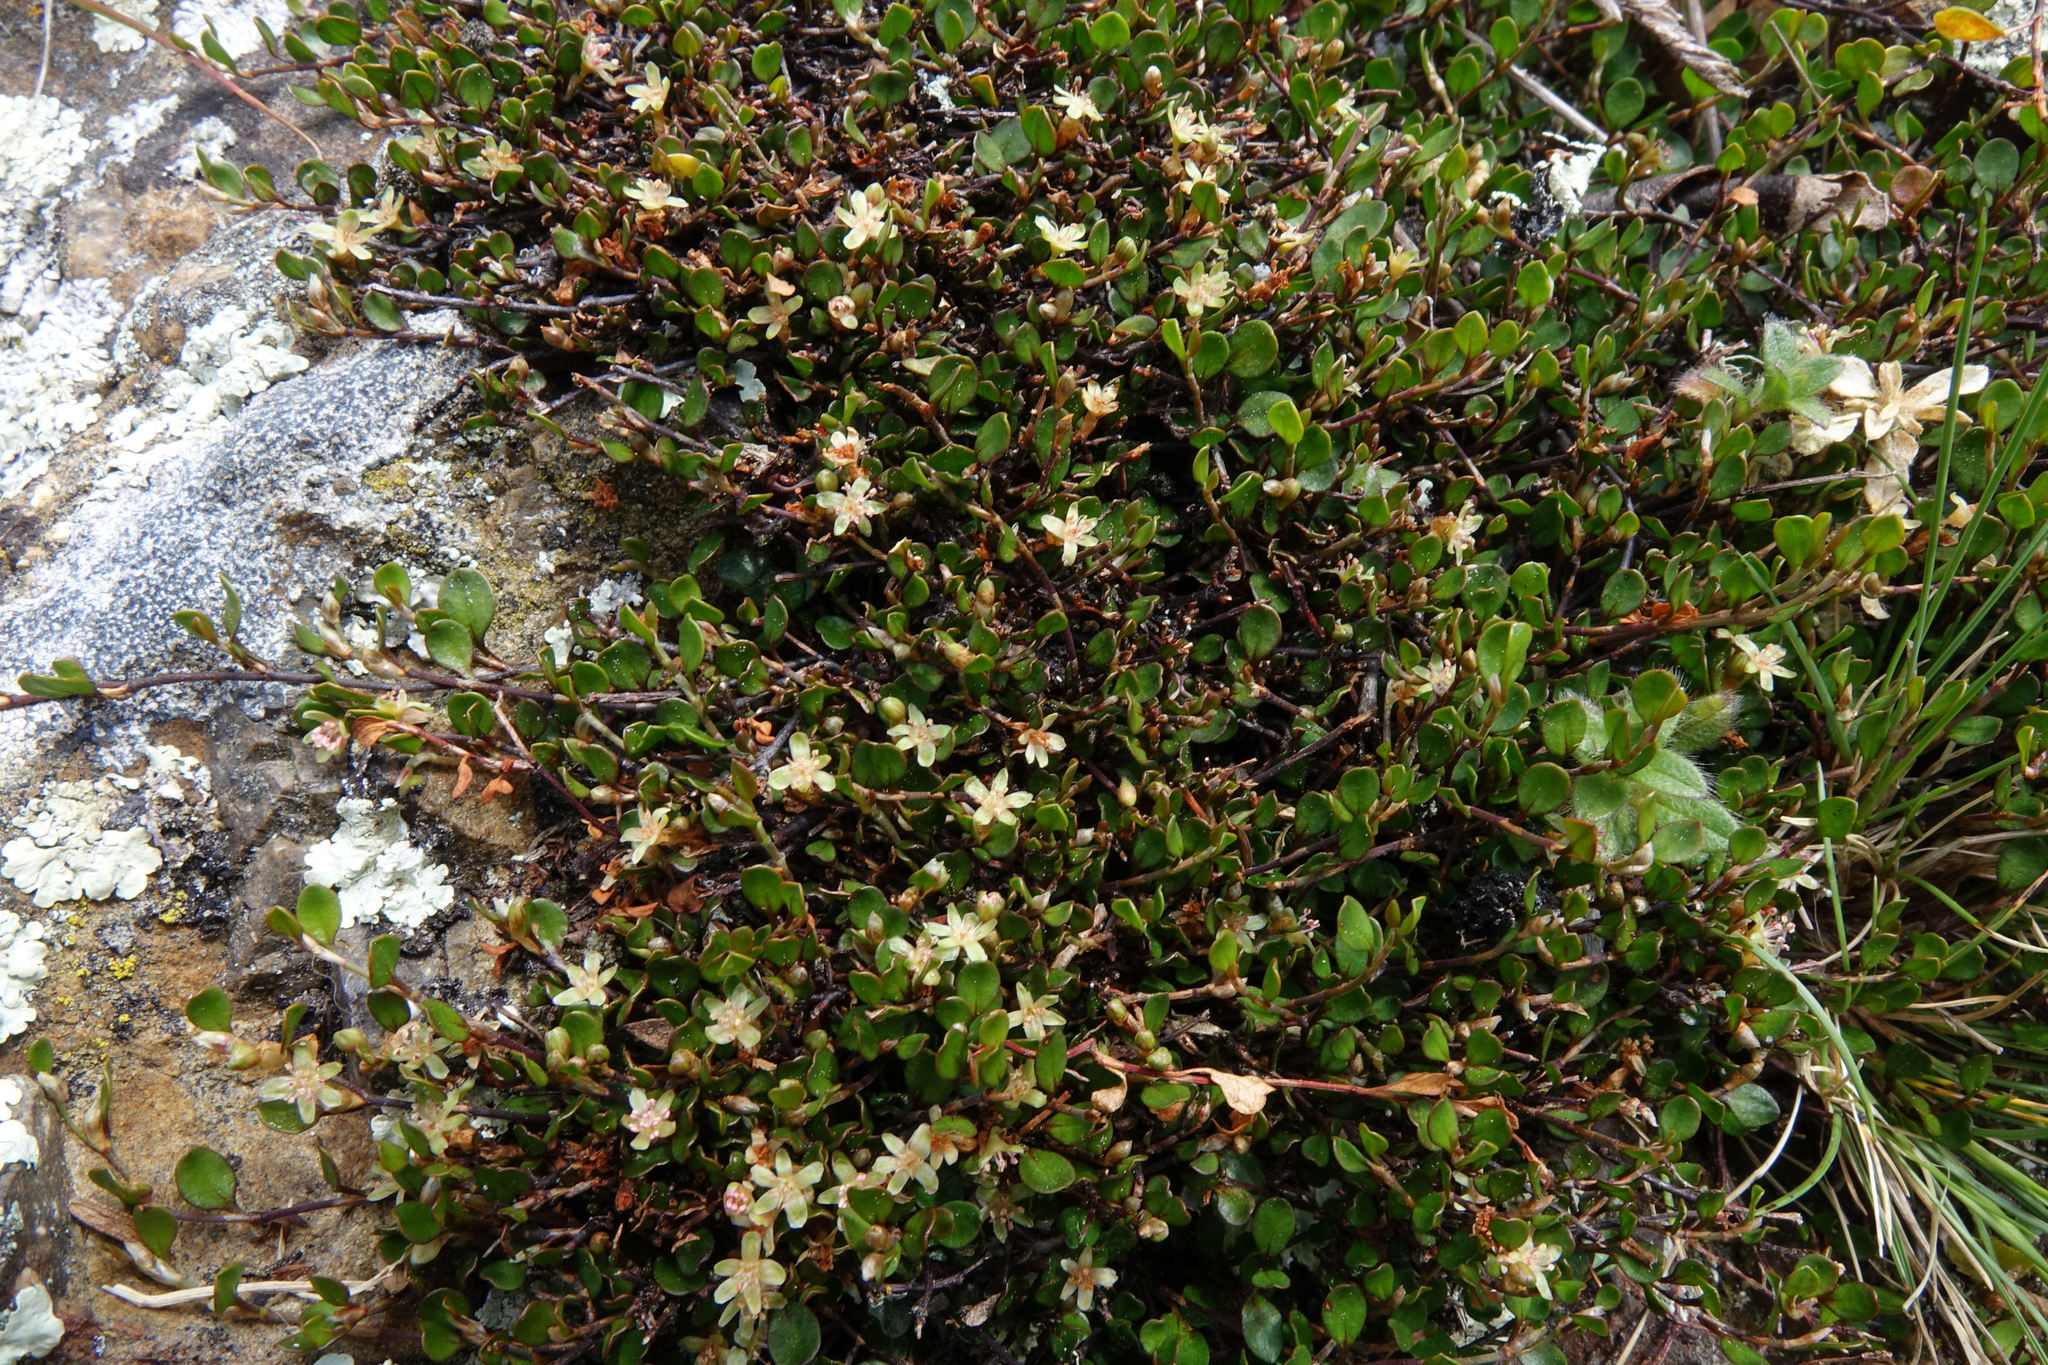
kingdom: Plantae
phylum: Tracheophyta
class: Magnoliopsida
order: Caryophyllales
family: Polygonaceae
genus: Muehlenbeckia
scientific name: Muehlenbeckia axillaris
